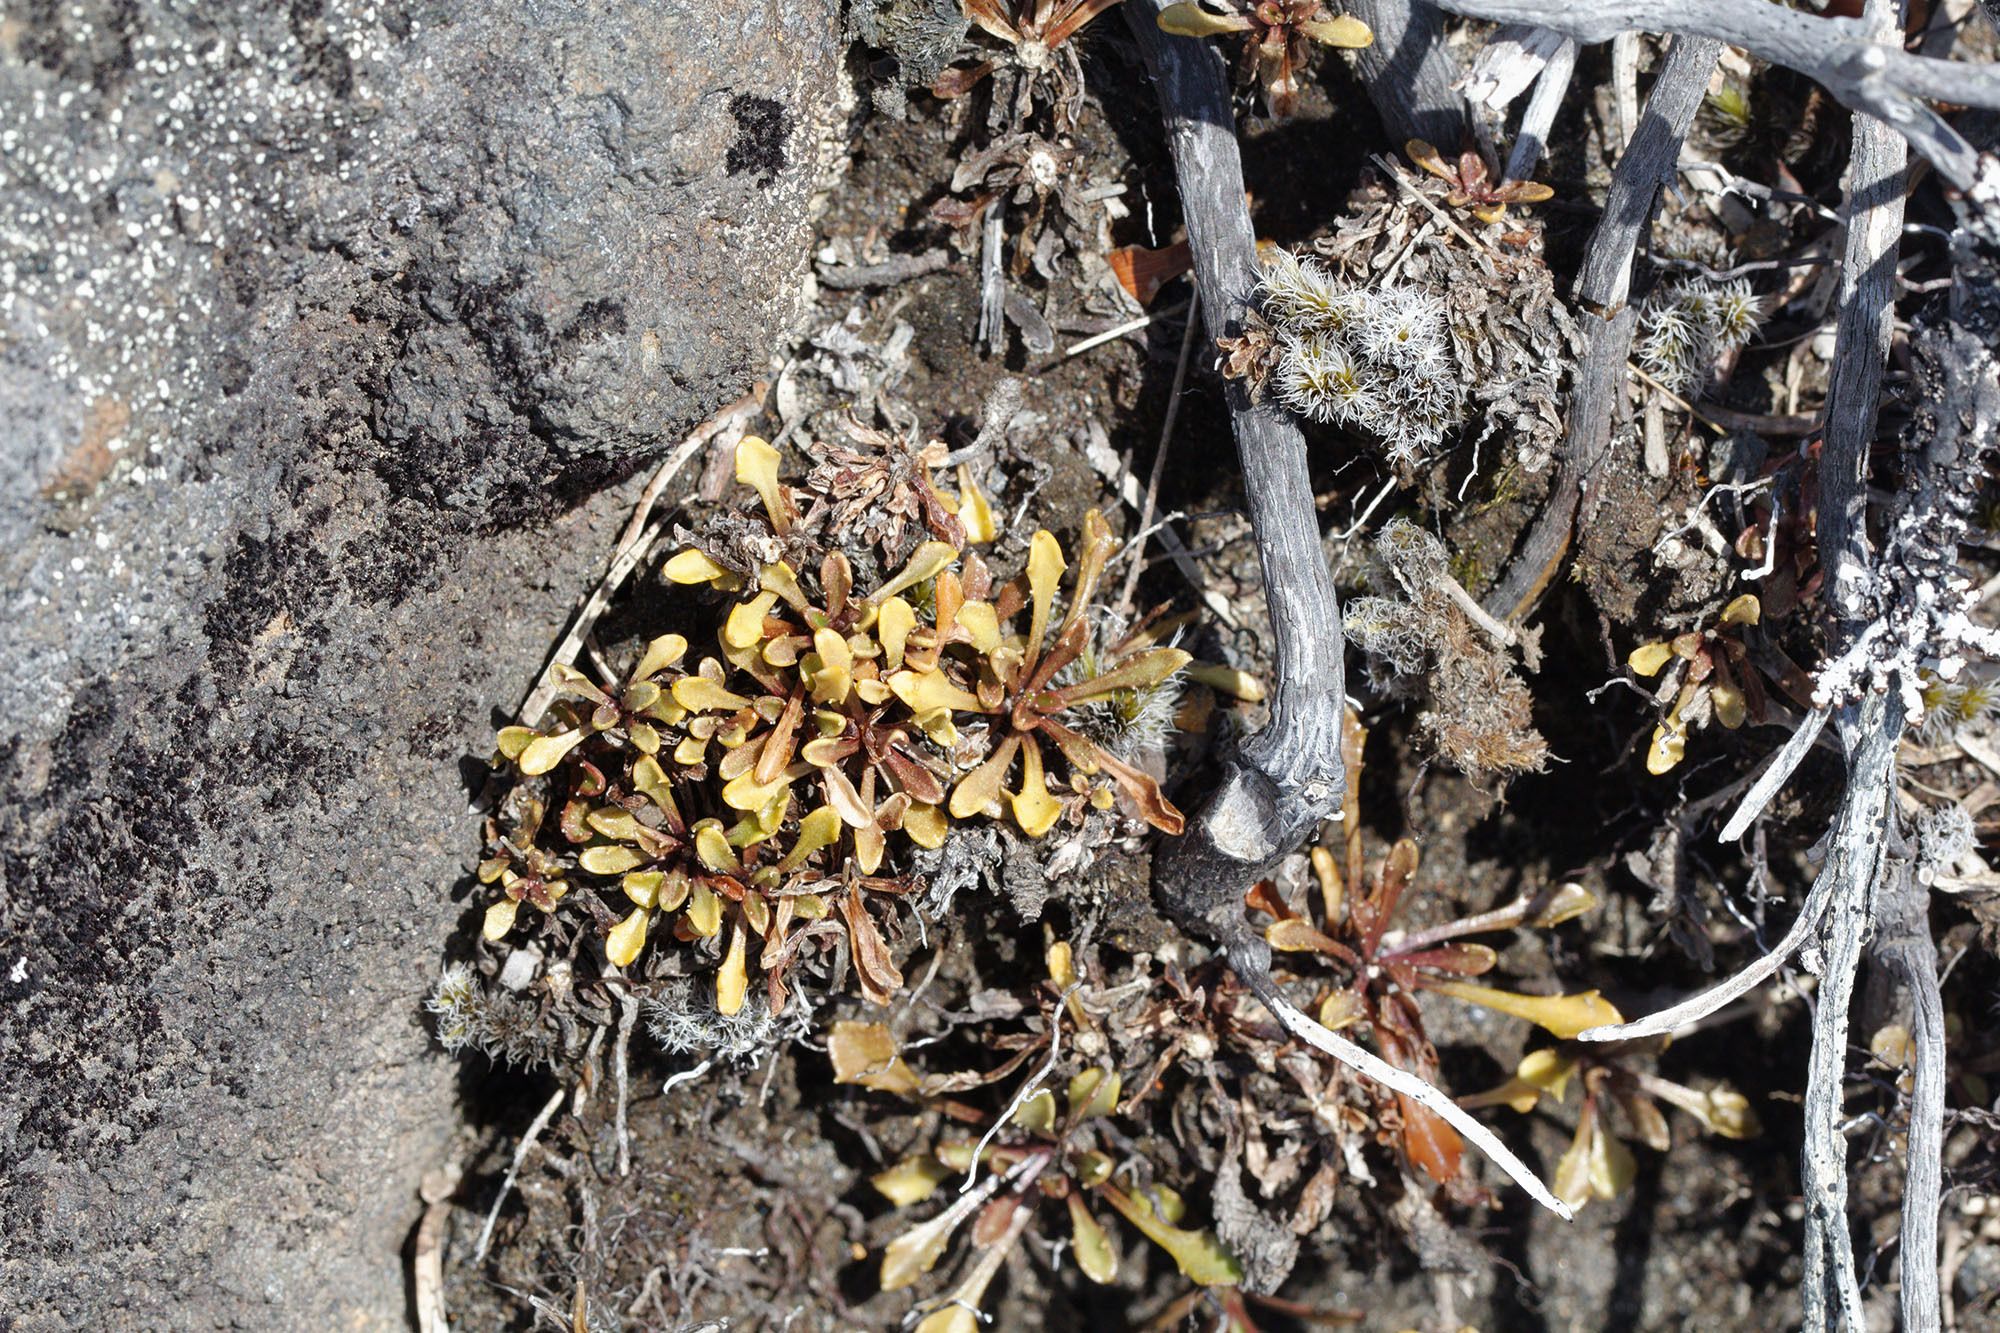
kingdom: Plantae
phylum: Tracheophyta
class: Magnoliopsida
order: Asterales
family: Campanulaceae
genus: Wahlenbergia
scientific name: Wahlenbergia pygmaea
